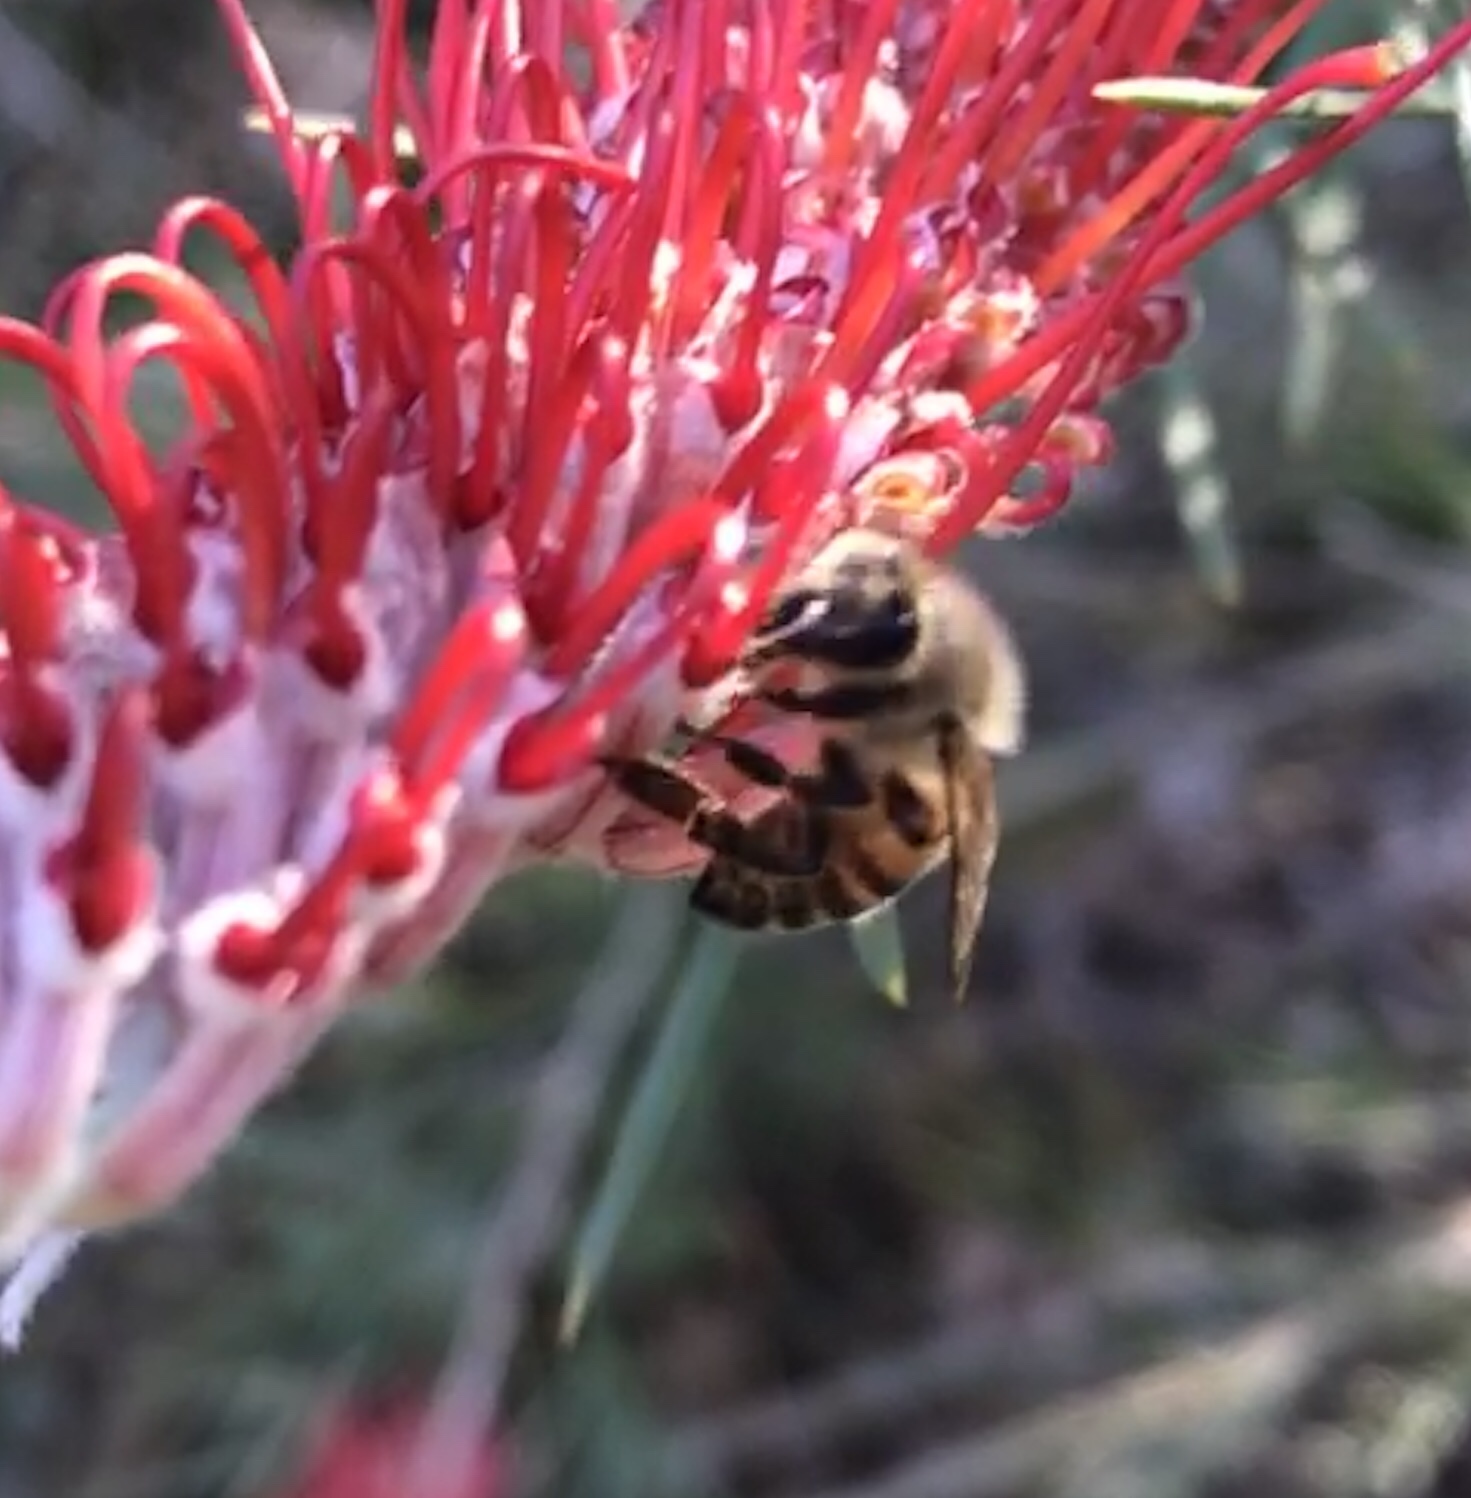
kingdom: Animalia
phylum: Arthropoda
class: Insecta
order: Hymenoptera
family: Apidae
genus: Apis
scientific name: Apis mellifera
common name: Honey bee
